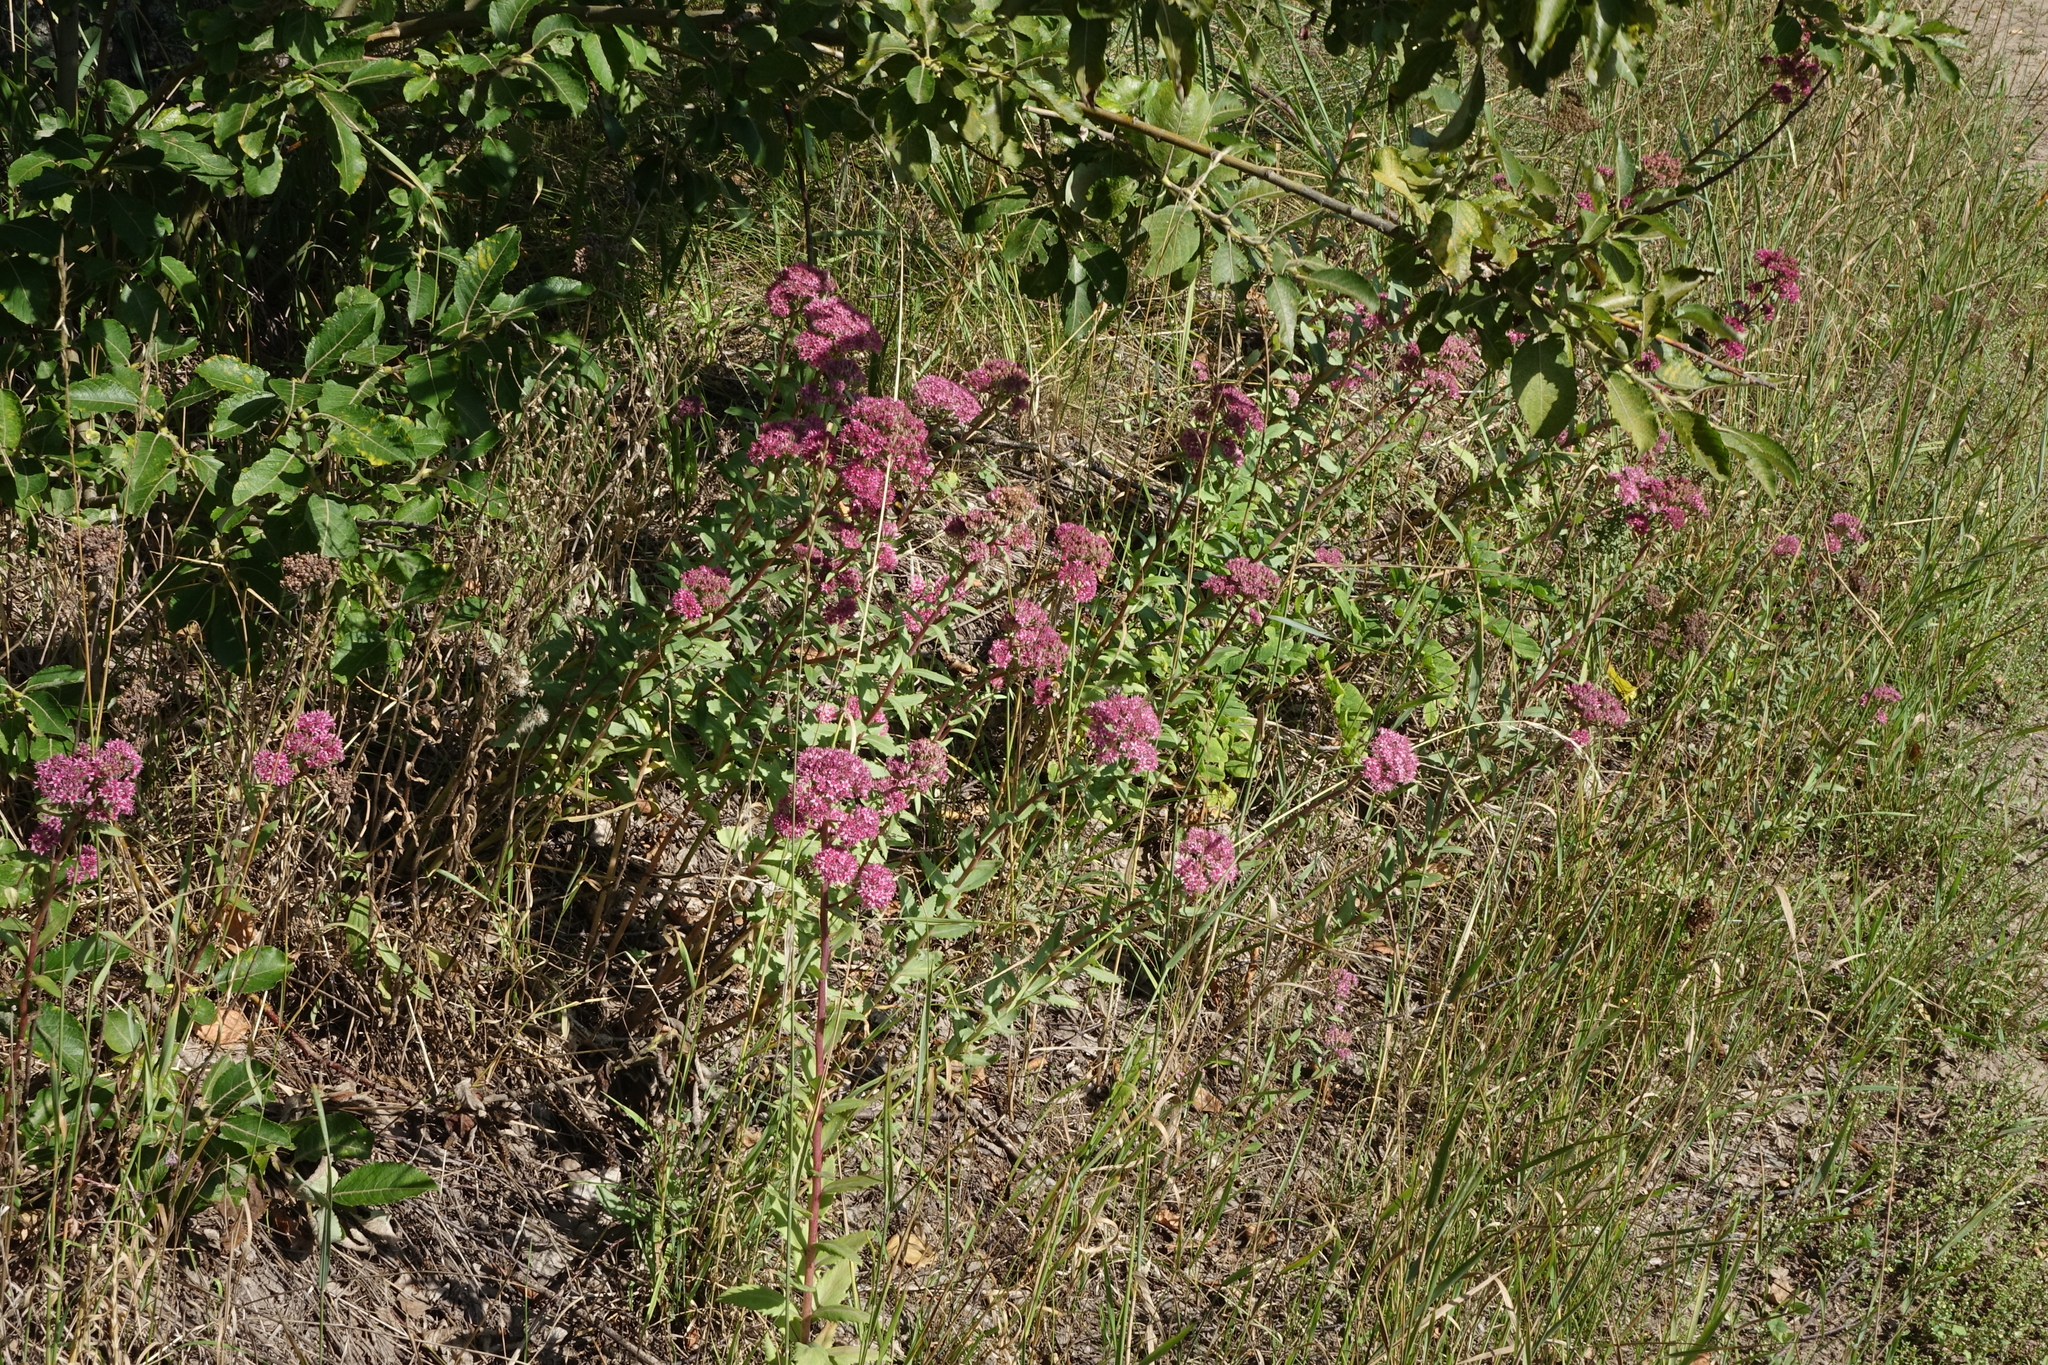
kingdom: Plantae
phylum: Tracheophyta
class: Magnoliopsida
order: Saxifragales
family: Crassulaceae
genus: Hylotelephium
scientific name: Hylotelephium telephium
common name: Live-forever
